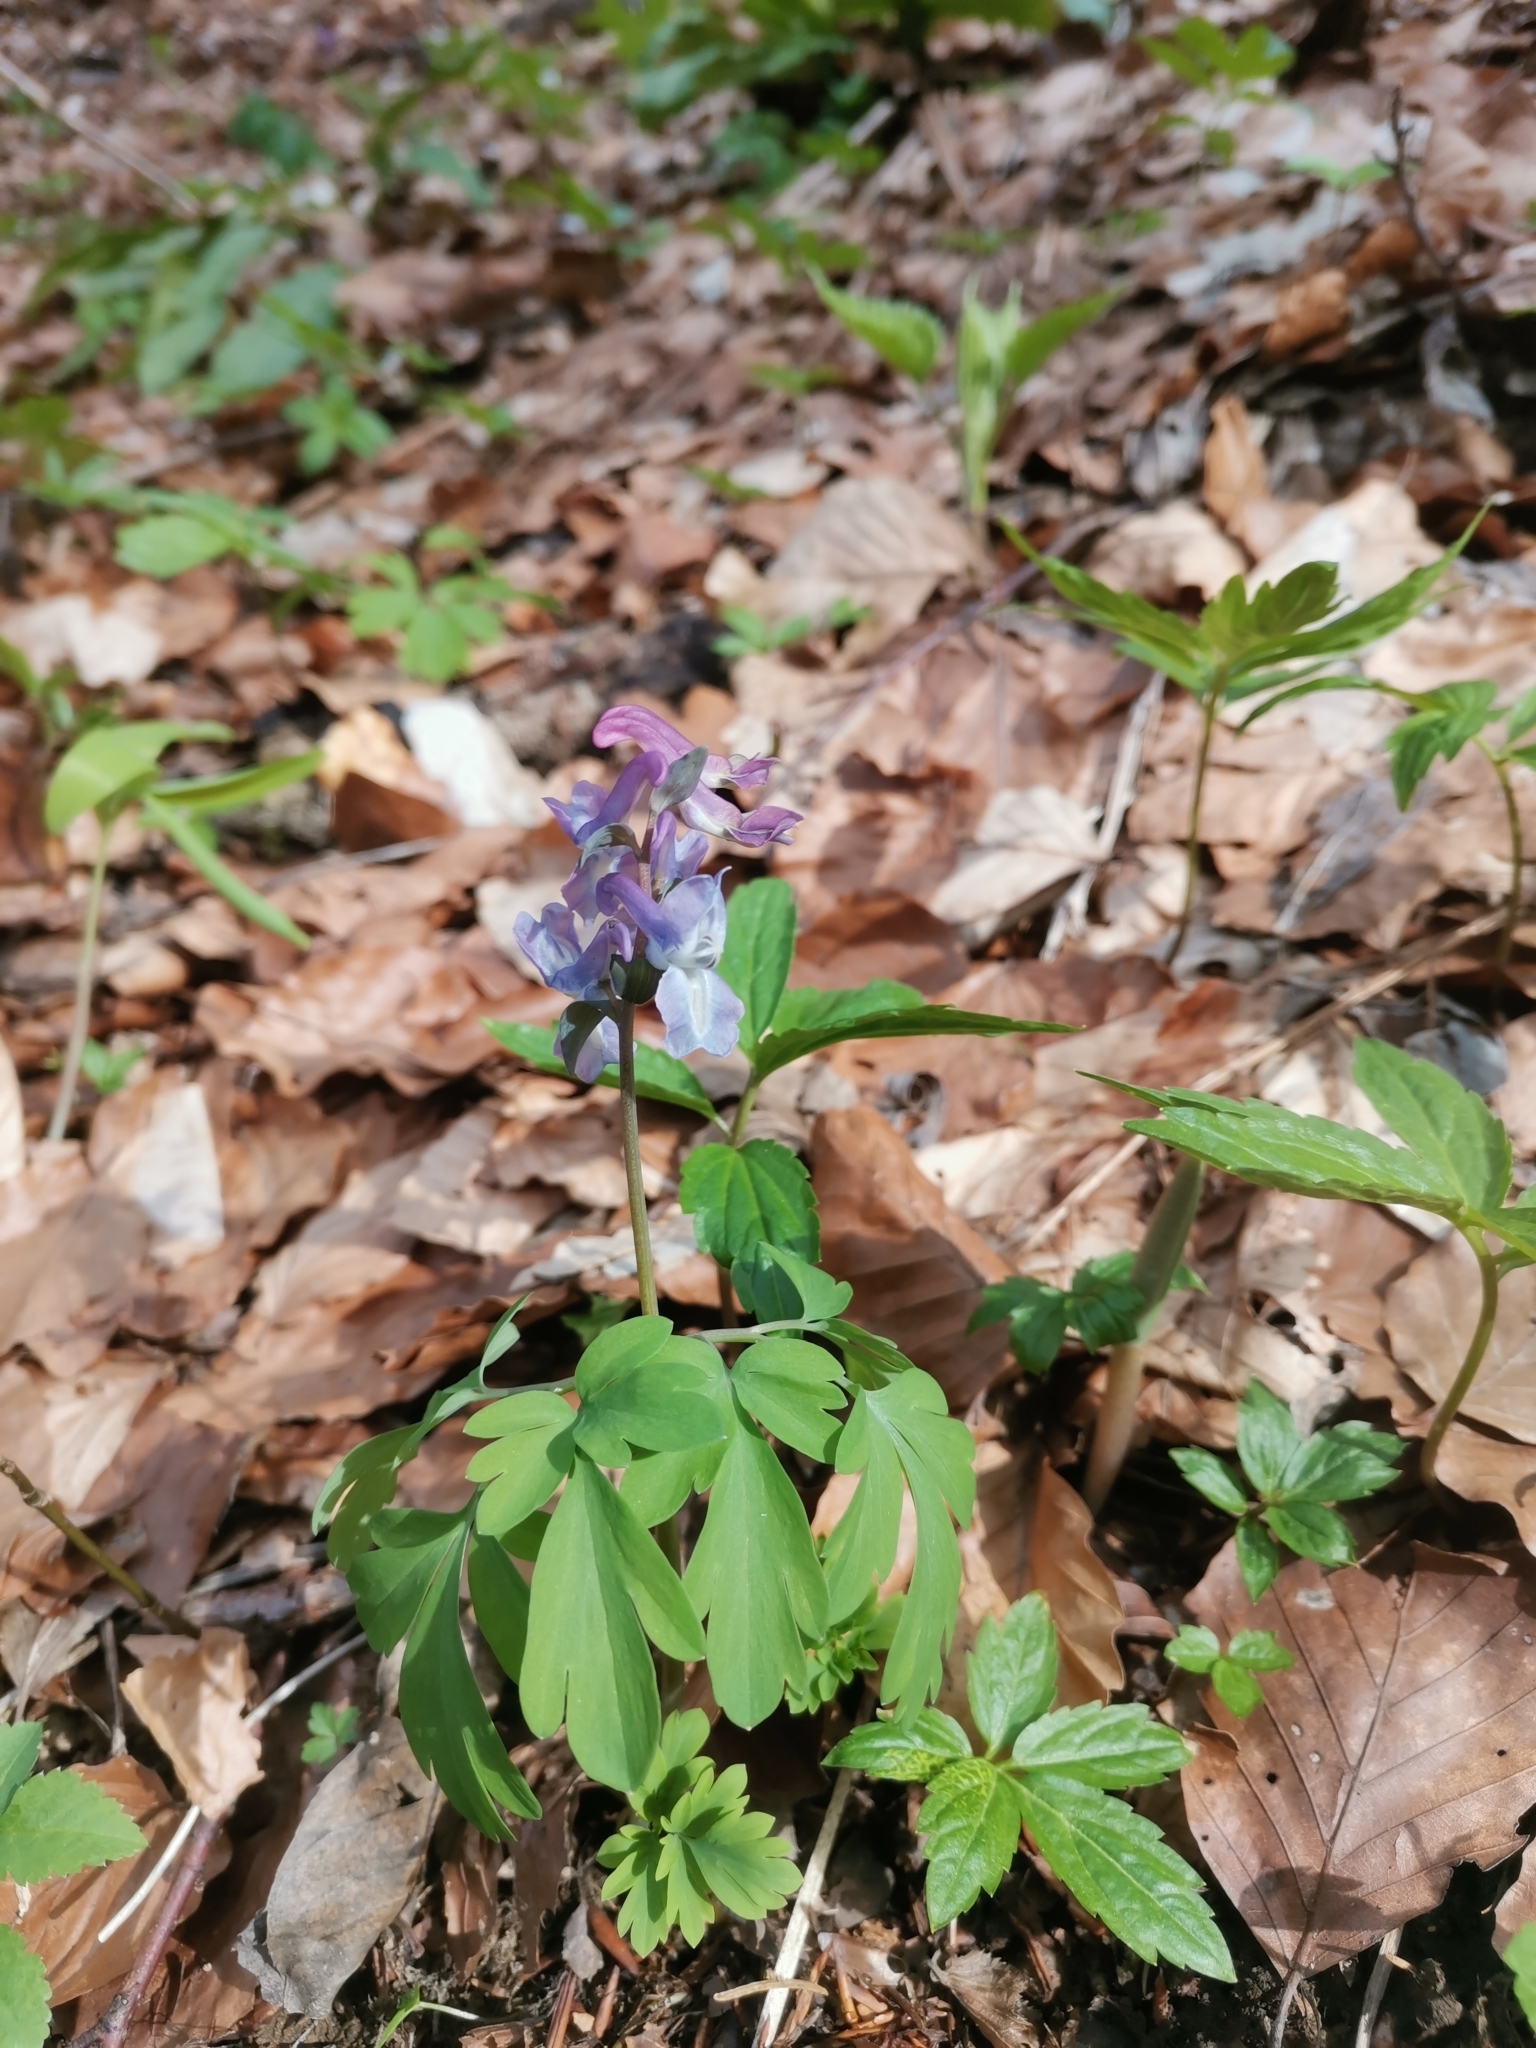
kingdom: Plantae
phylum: Tracheophyta
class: Magnoliopsida
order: Ranunculales
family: Papaveraceae
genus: Corydalis
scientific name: Corydalis cava
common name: Hollowroot
